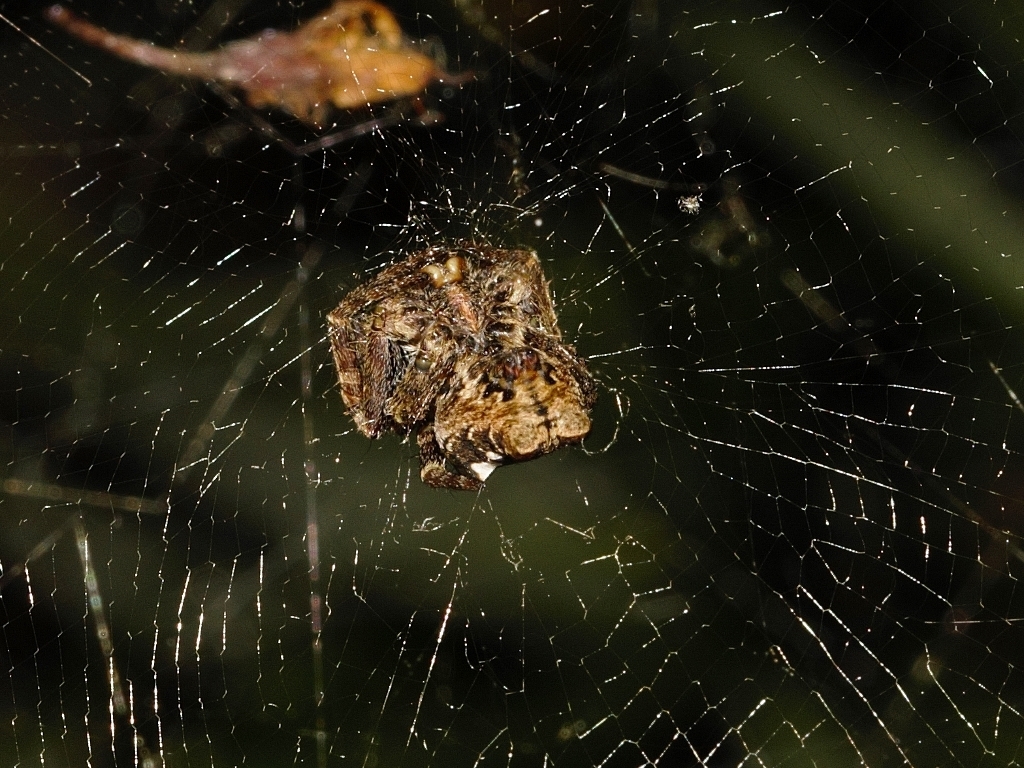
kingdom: Animalia
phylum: Arthropoda
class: Arachnida
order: Araneae
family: Araneidae
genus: Cyrtophora
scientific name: Cyrtophora citricola
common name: Orb weavers
